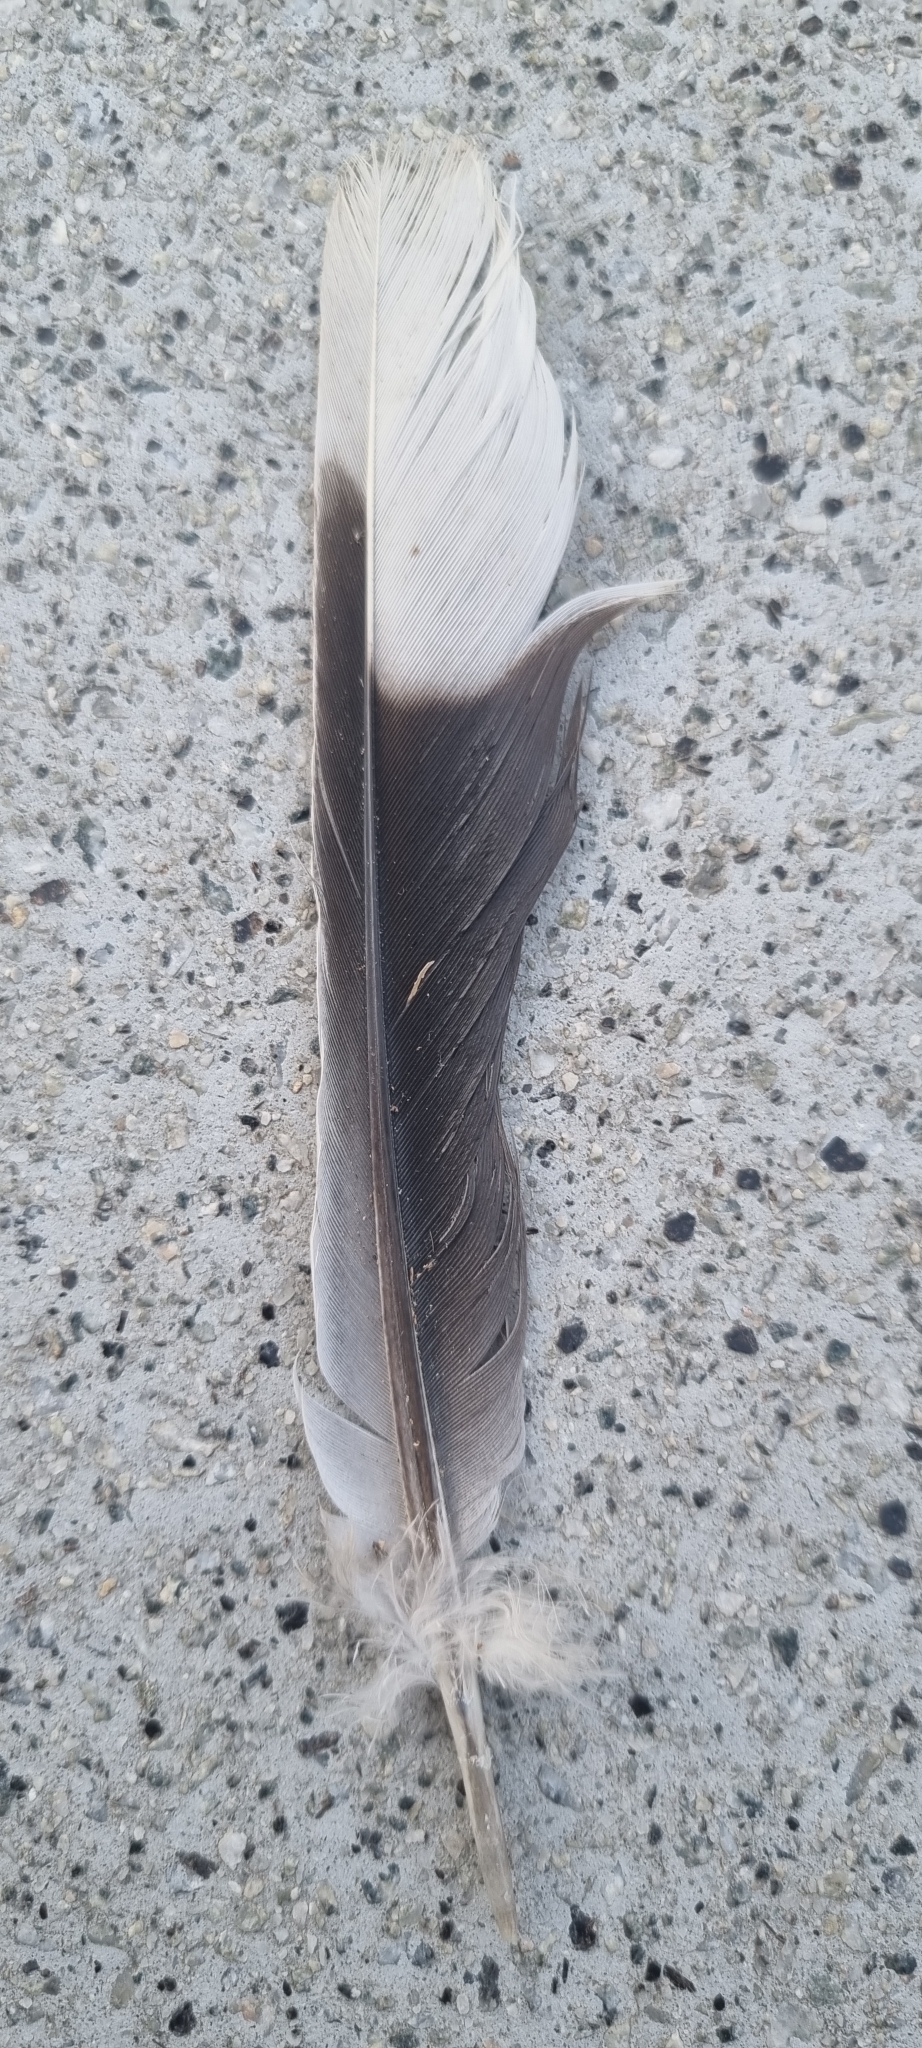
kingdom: Animalia
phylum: Chordata
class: Aves
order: Columbiformes
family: Columbidae
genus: Streptopelia
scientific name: Streptopelia decaocto
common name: Eurasian collared dove
